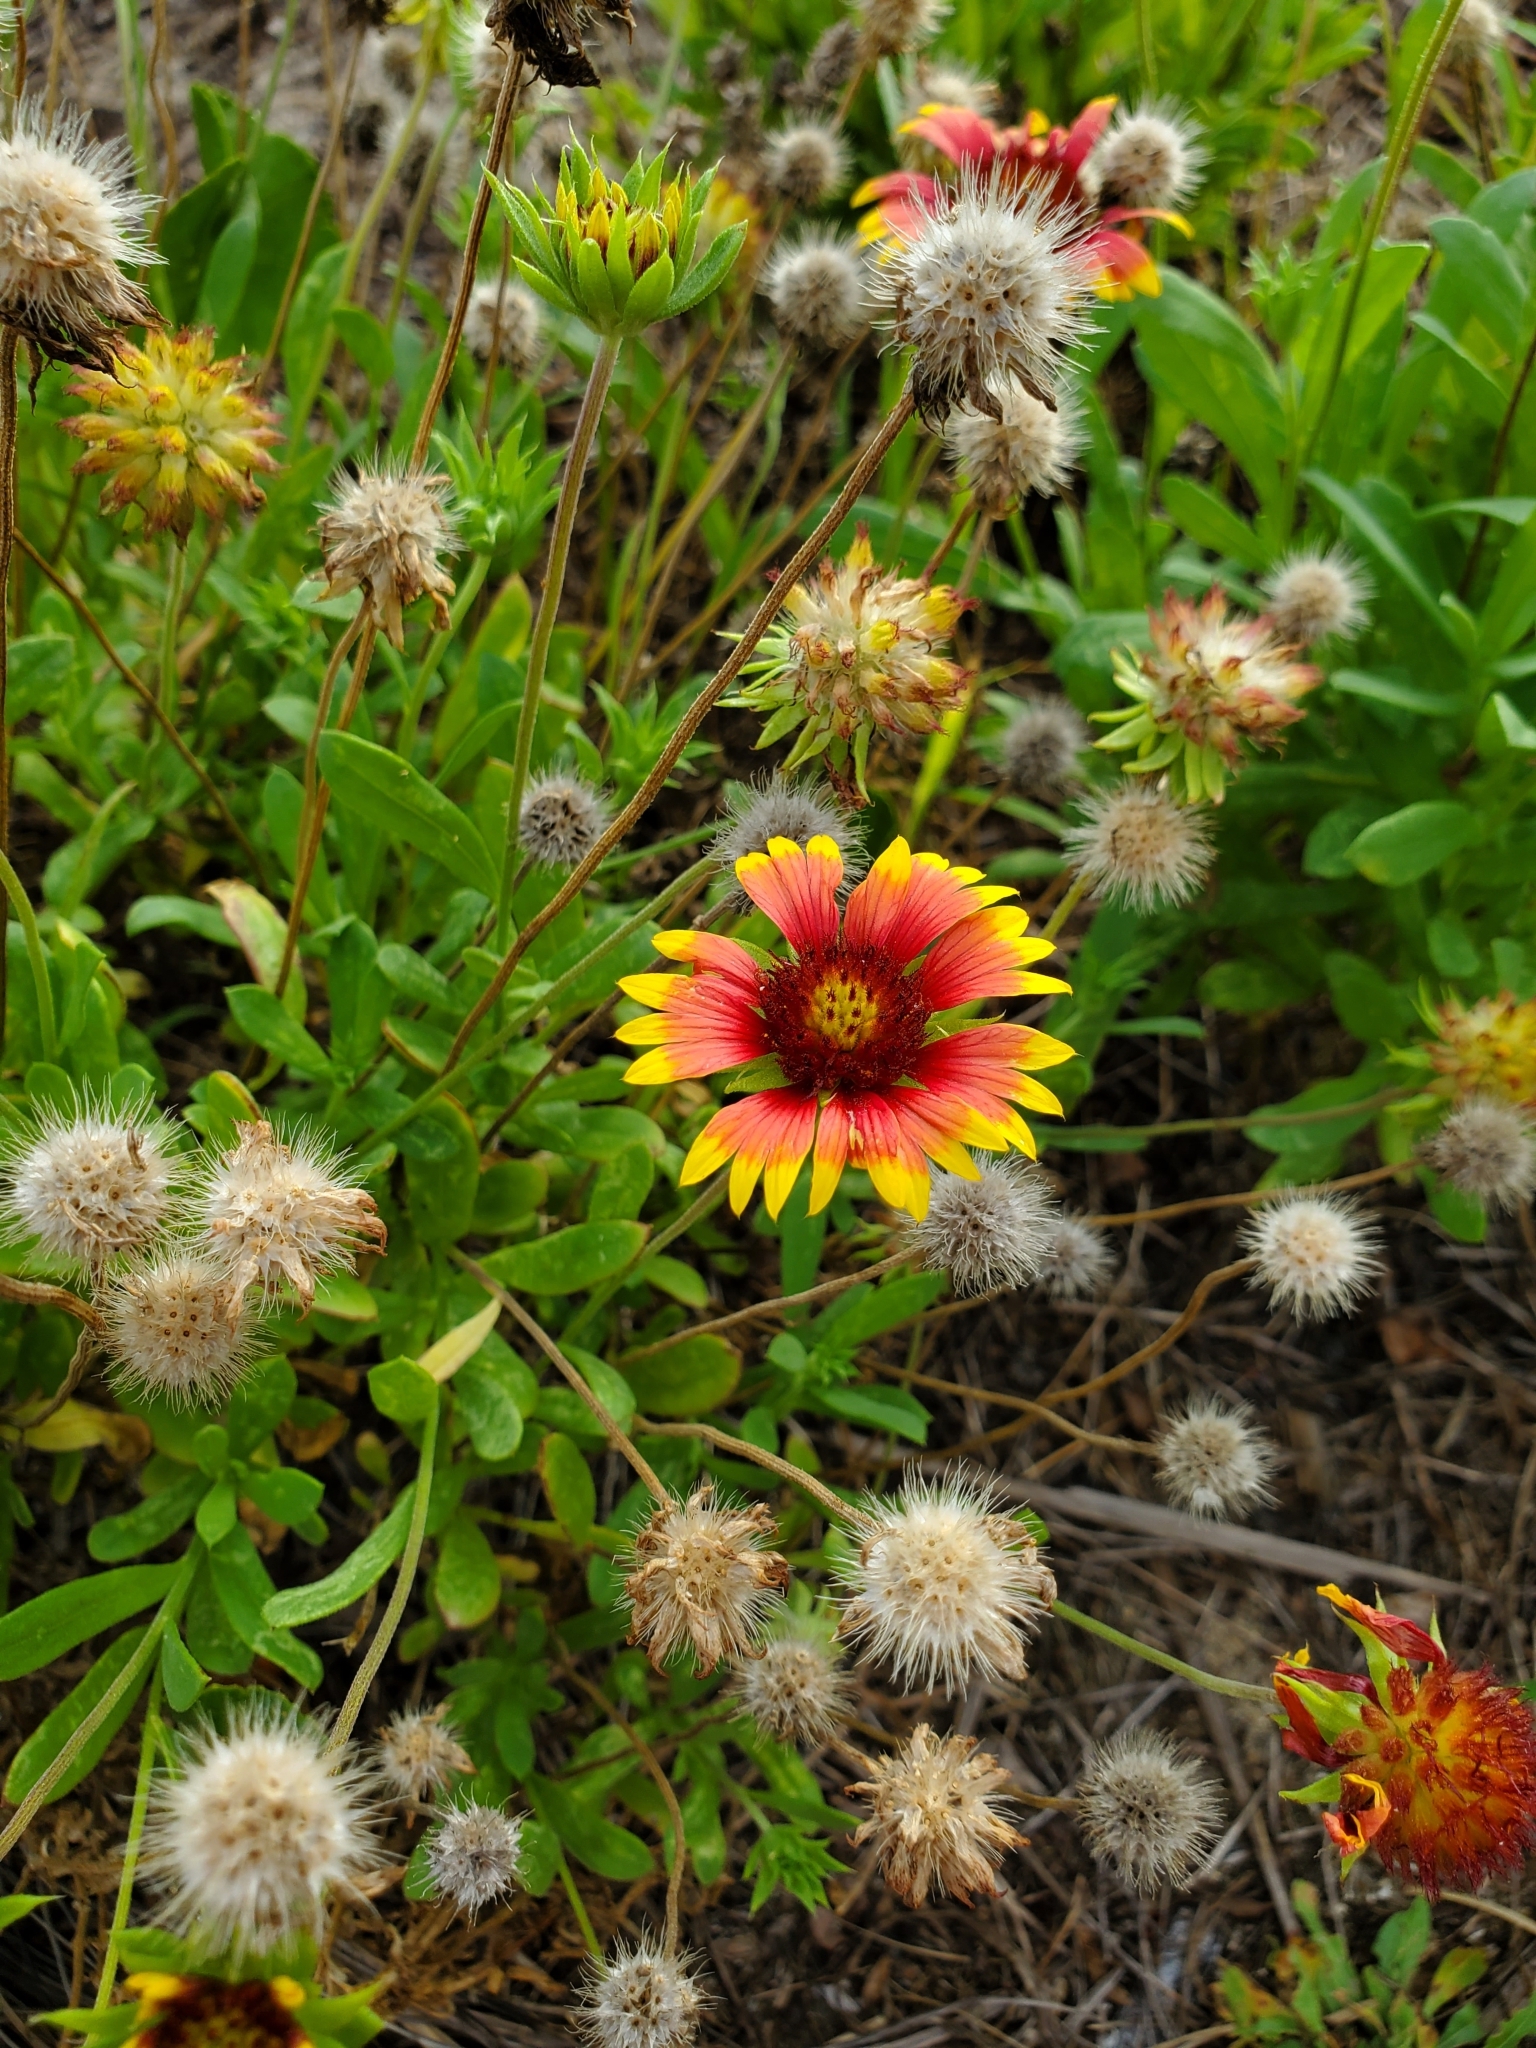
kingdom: Plantae
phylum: Tracheophyta
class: Magnoliopsida
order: Asterales
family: Asteraceae
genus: Gaillardia
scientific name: Gaillardia pulchella
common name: Firewheel
